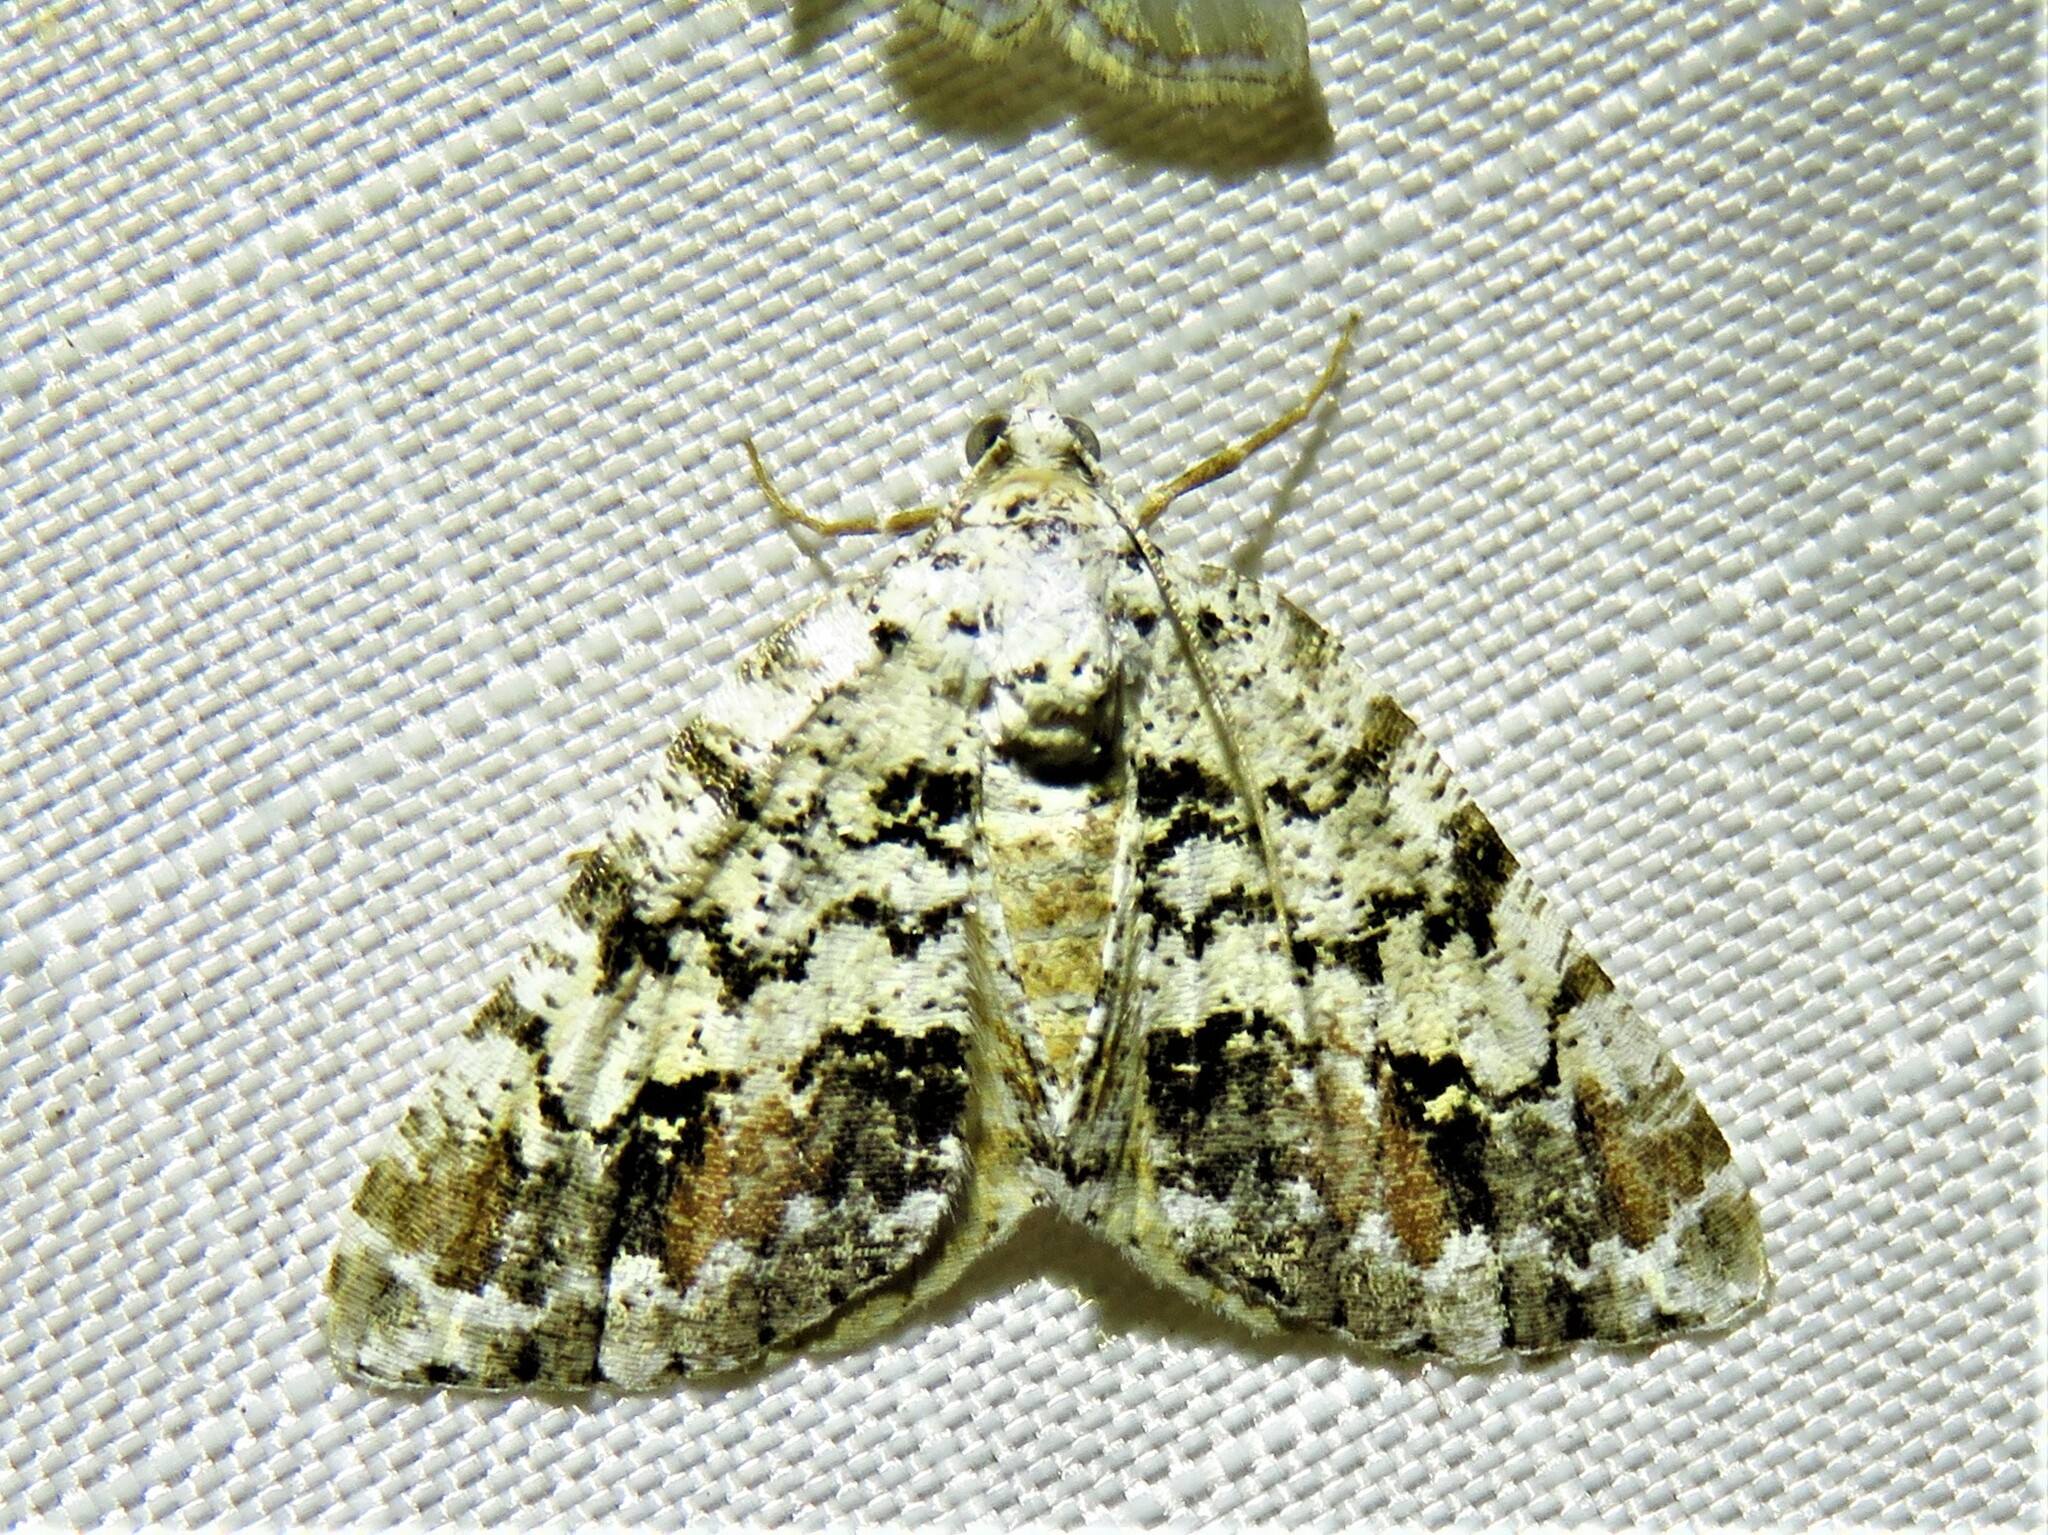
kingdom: Animalia
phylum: Arthropoda
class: Insecta
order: Lepidoptera
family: Geometridae
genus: Macaria
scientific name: Macaria graphidaria
